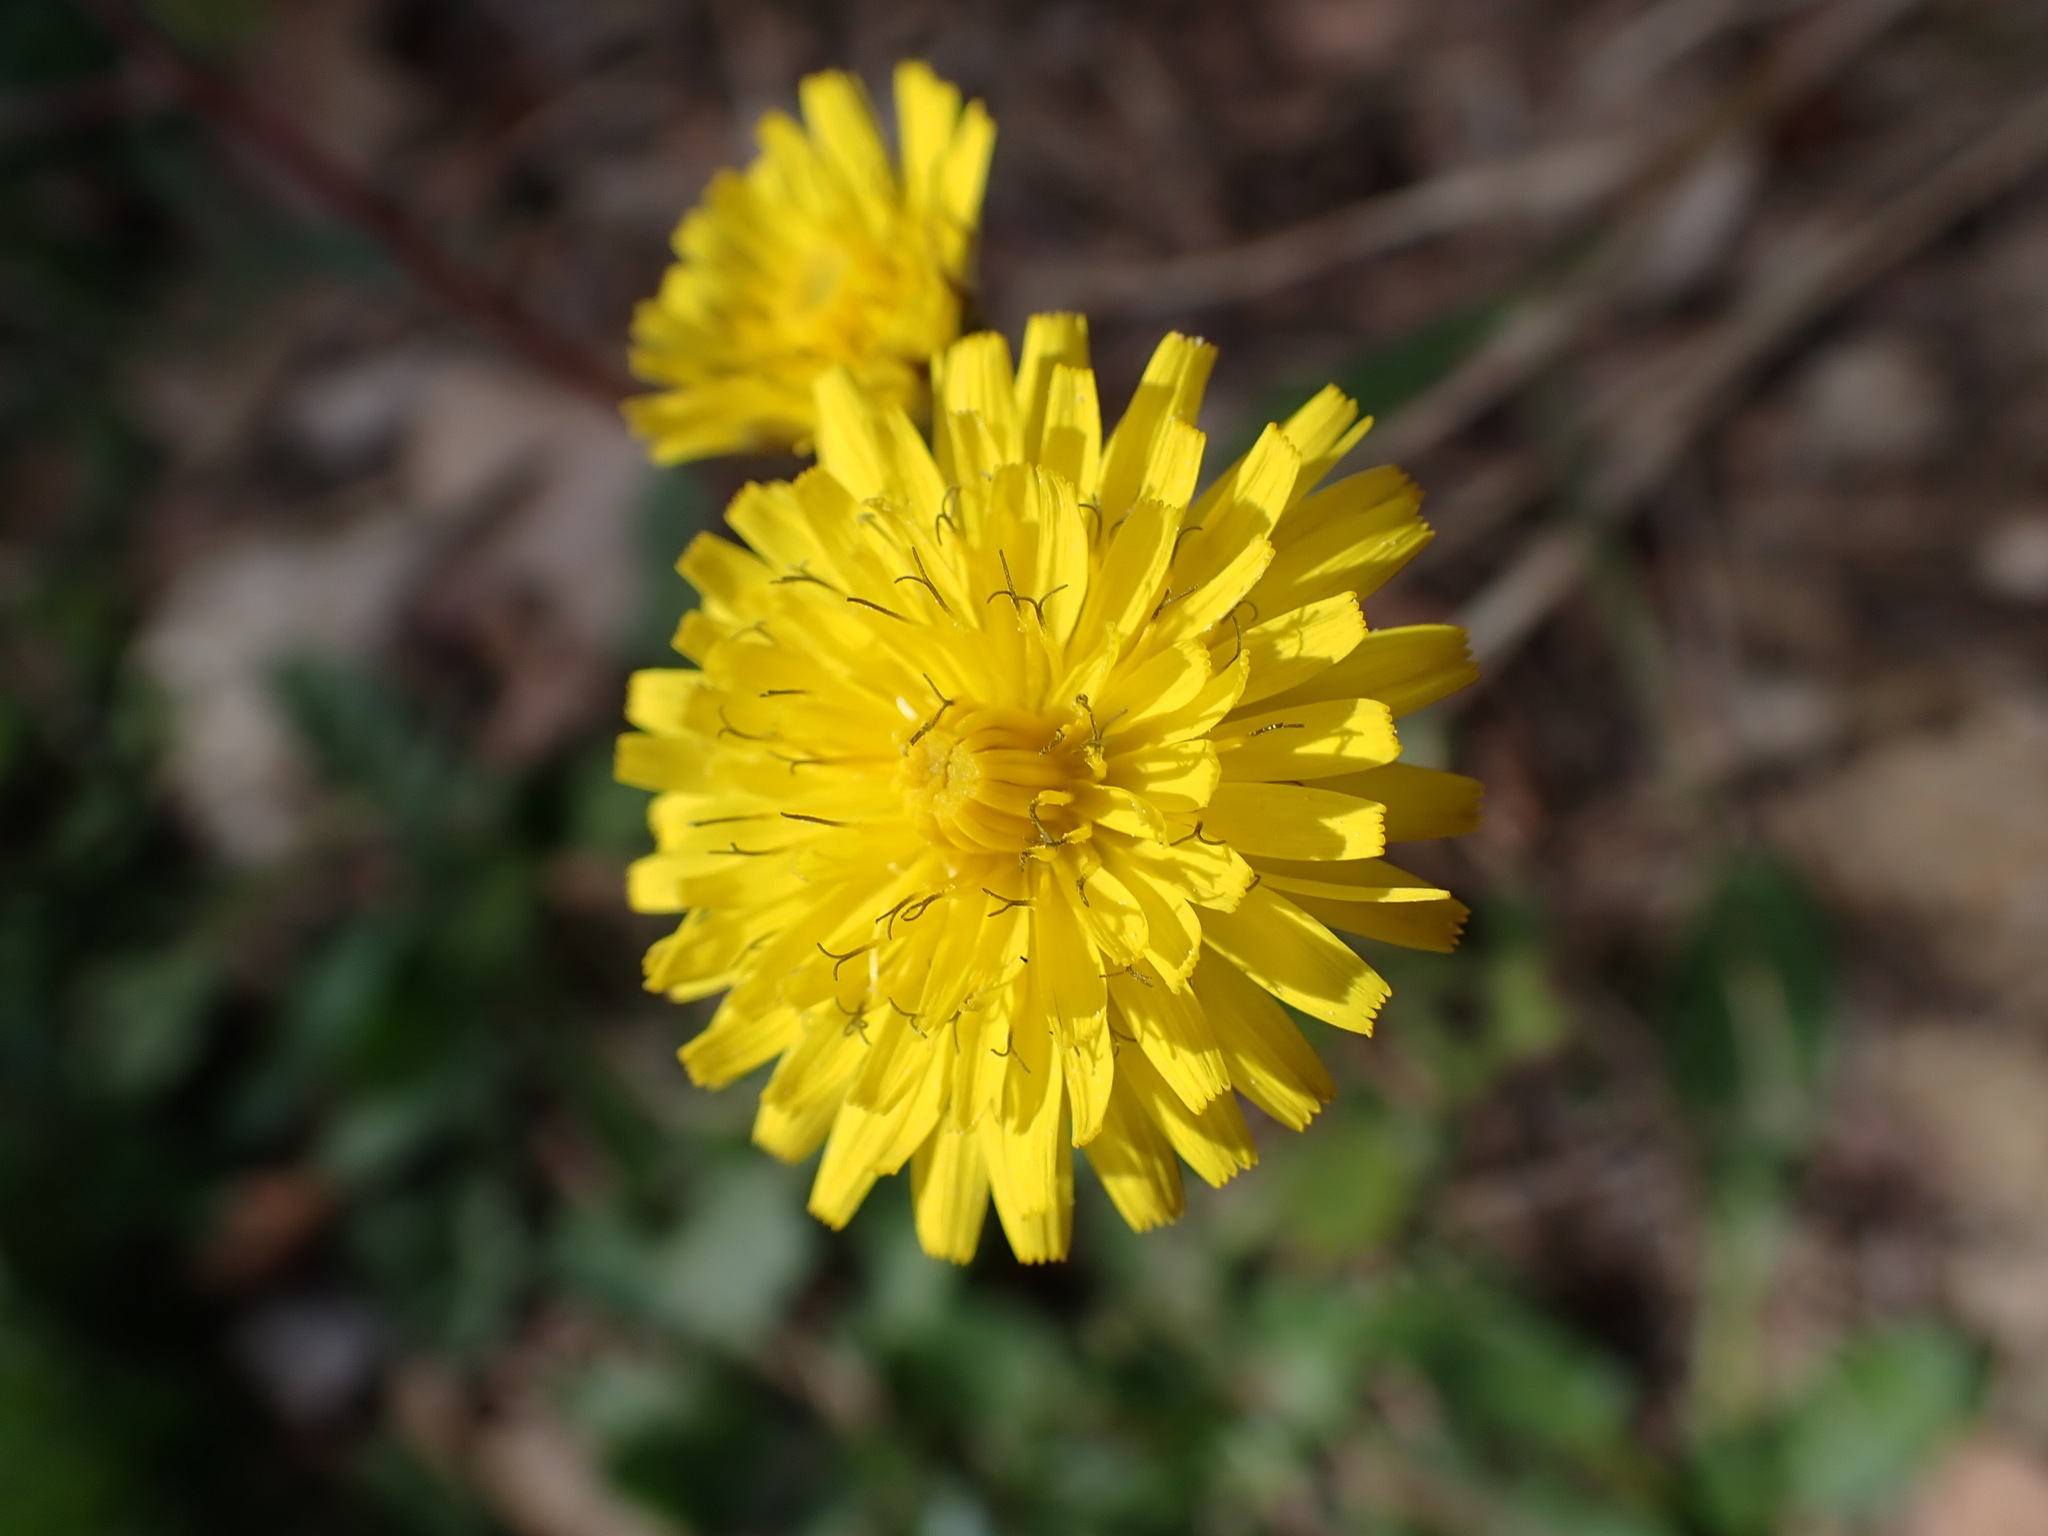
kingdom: Plantae
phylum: Tracheophyta
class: Magnoliopsida
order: Asterales
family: Asteraceae
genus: Crepis
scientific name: Crepis sancta
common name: Hawk's-beard
